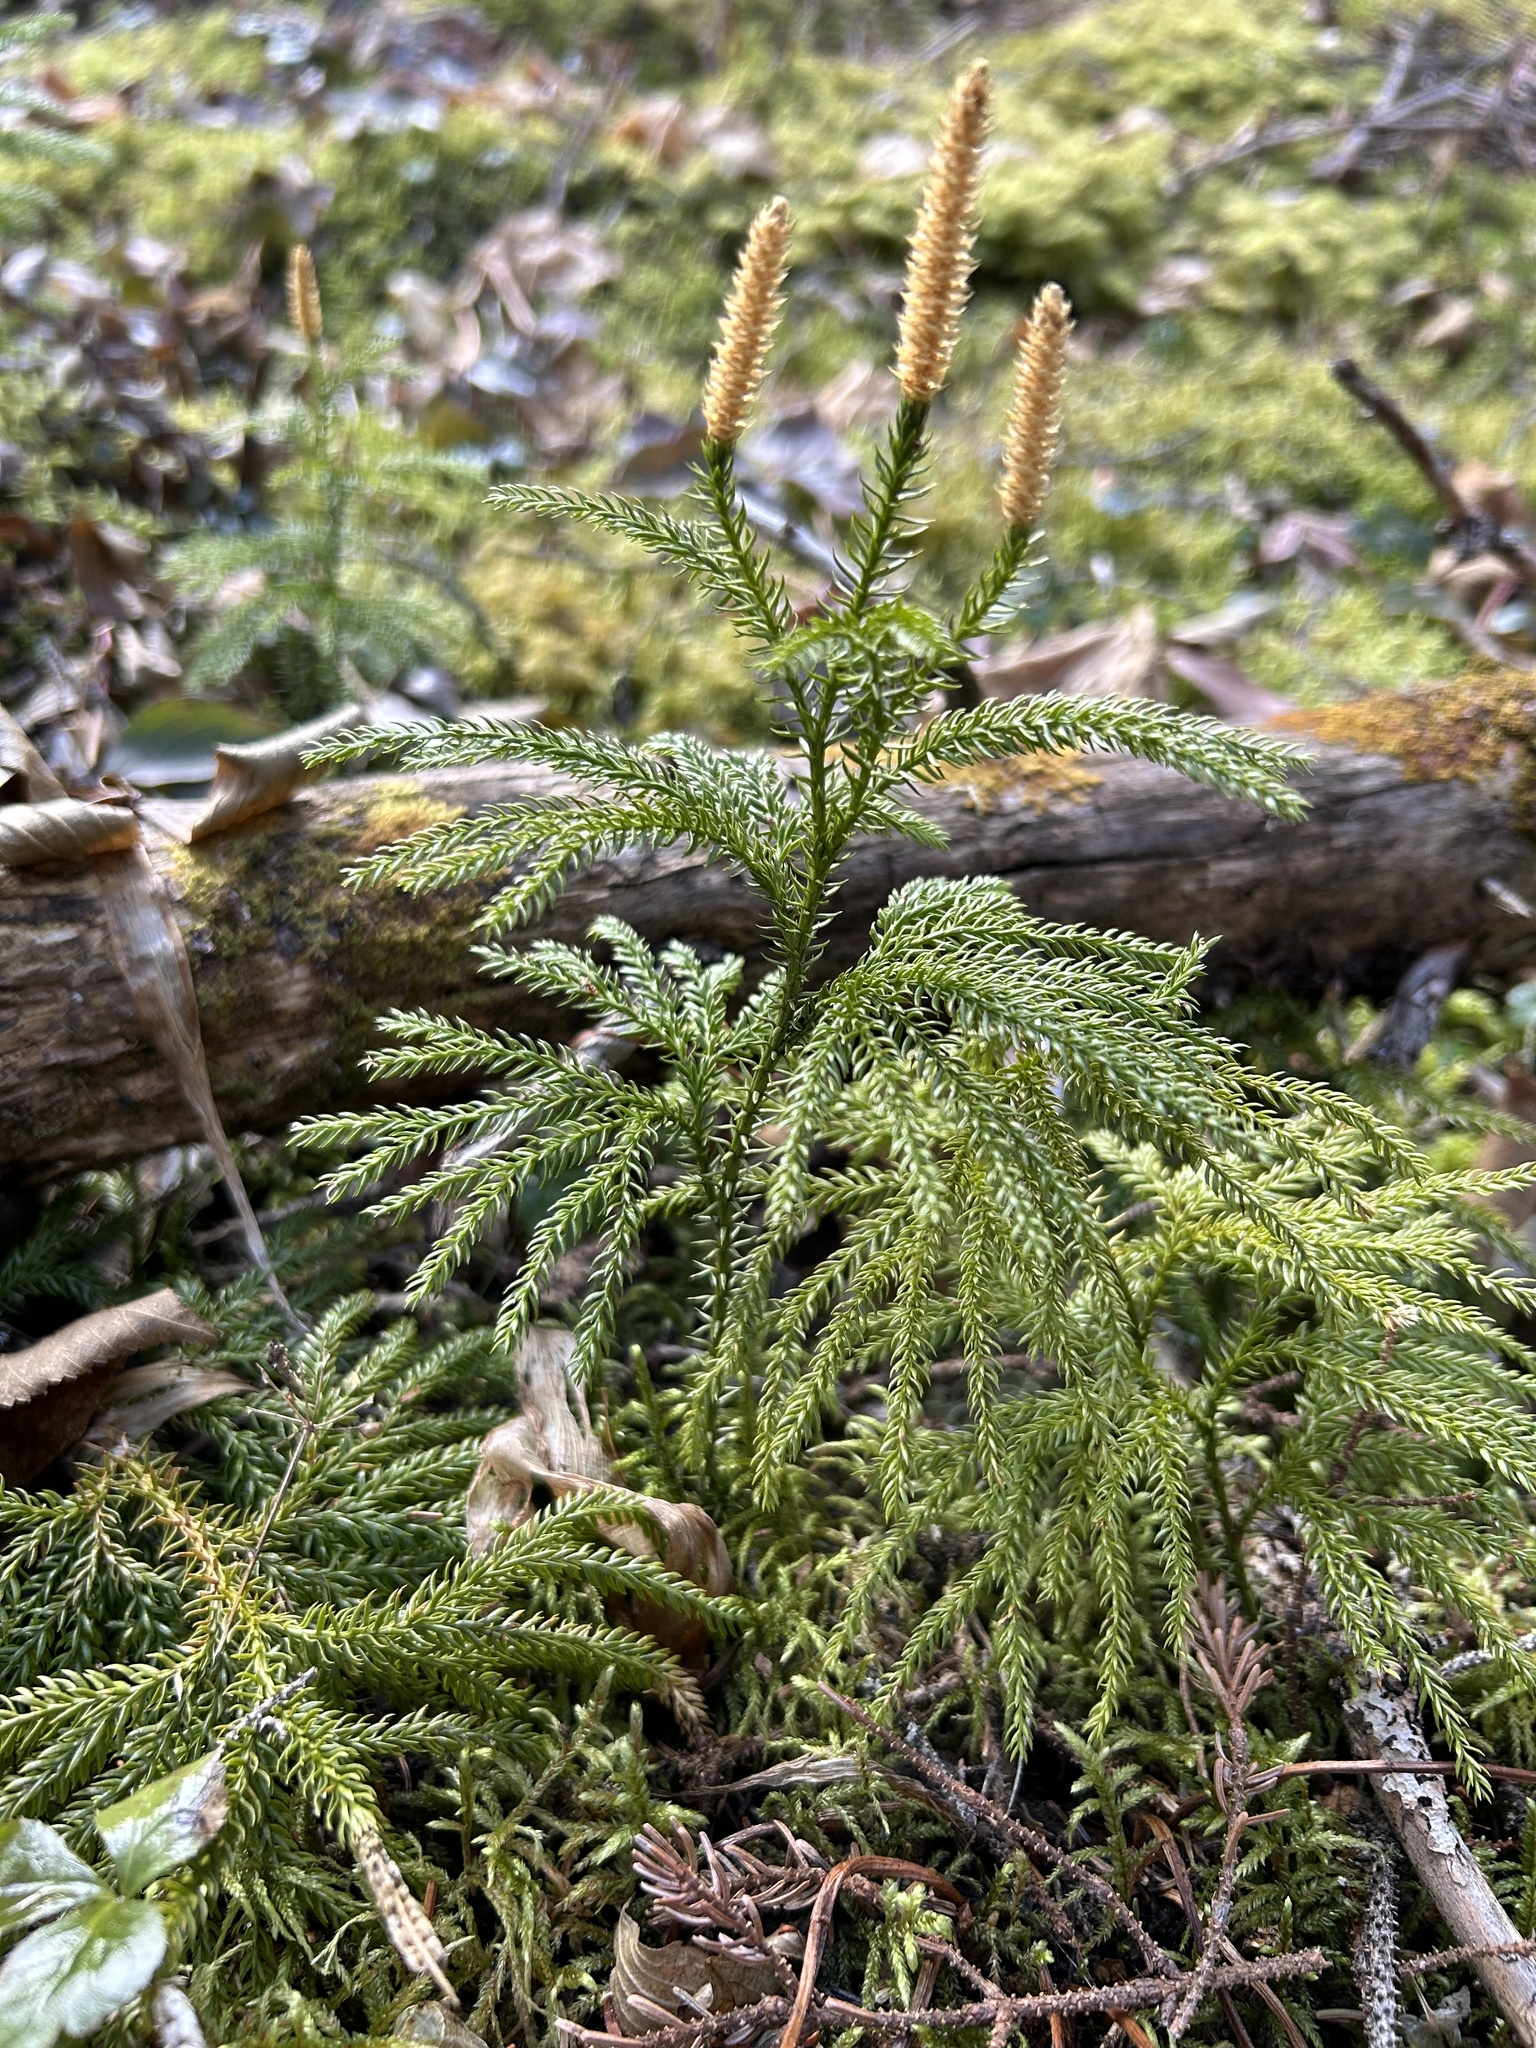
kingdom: Plantae
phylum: Tracheophyta
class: Lycopodiopsida
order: Lycopodiales
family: Lycopodiaceae
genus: Dendrolycopodium
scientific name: Dendrolycopodium dendroideum
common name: Northern tree-clubmoss
